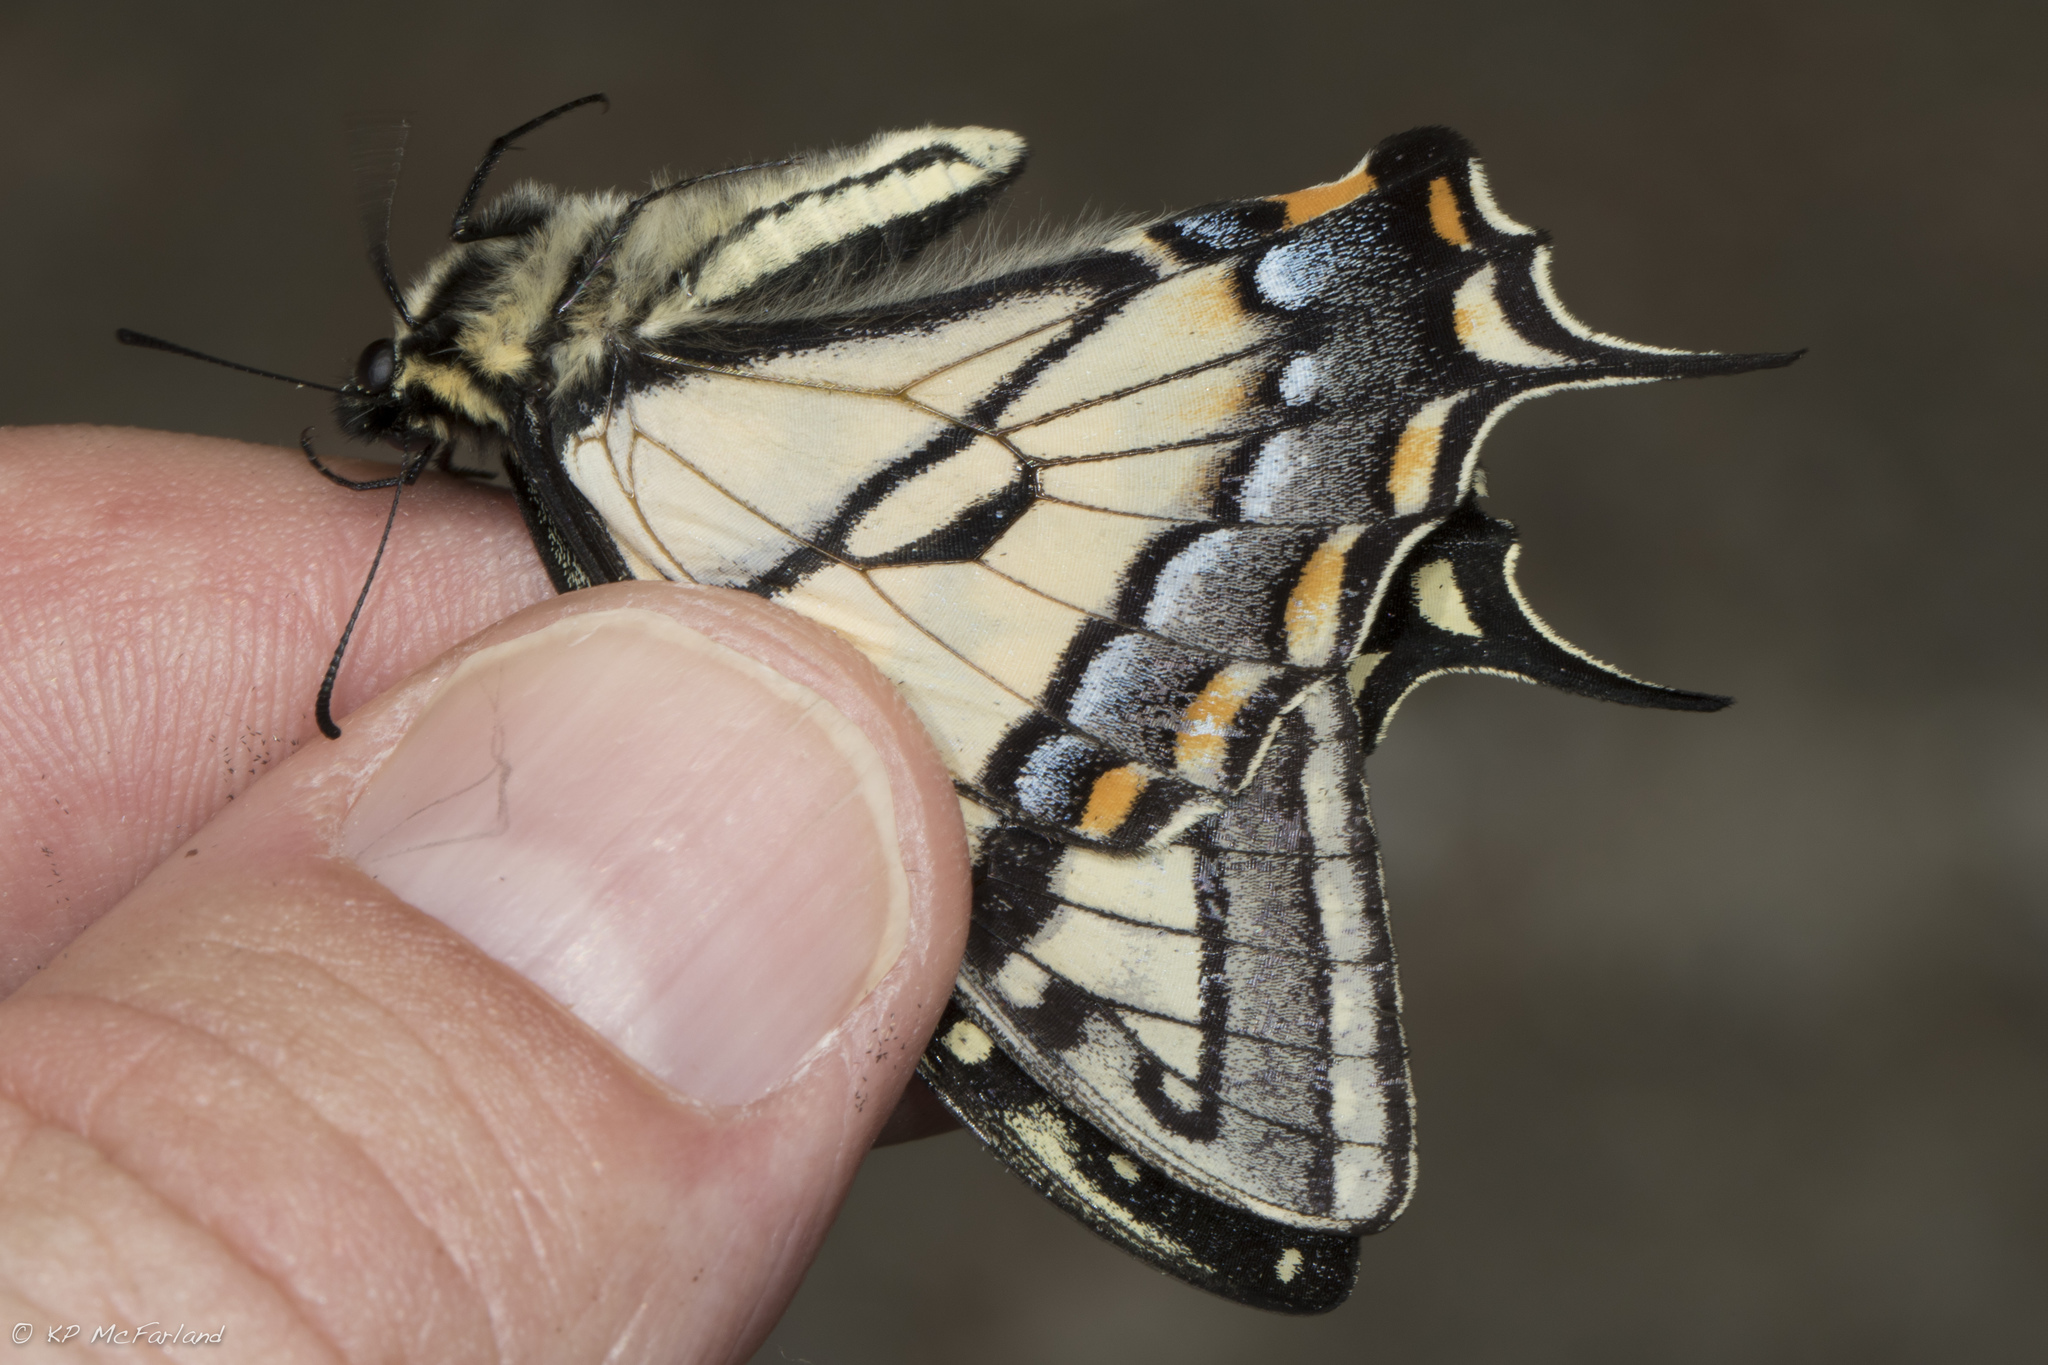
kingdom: Animalia
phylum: Arthropoda
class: Insecta
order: Lepidoptera
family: Papilionidae
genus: Papilio
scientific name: Papilio canadensis
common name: Canadian tiger swallowtail
